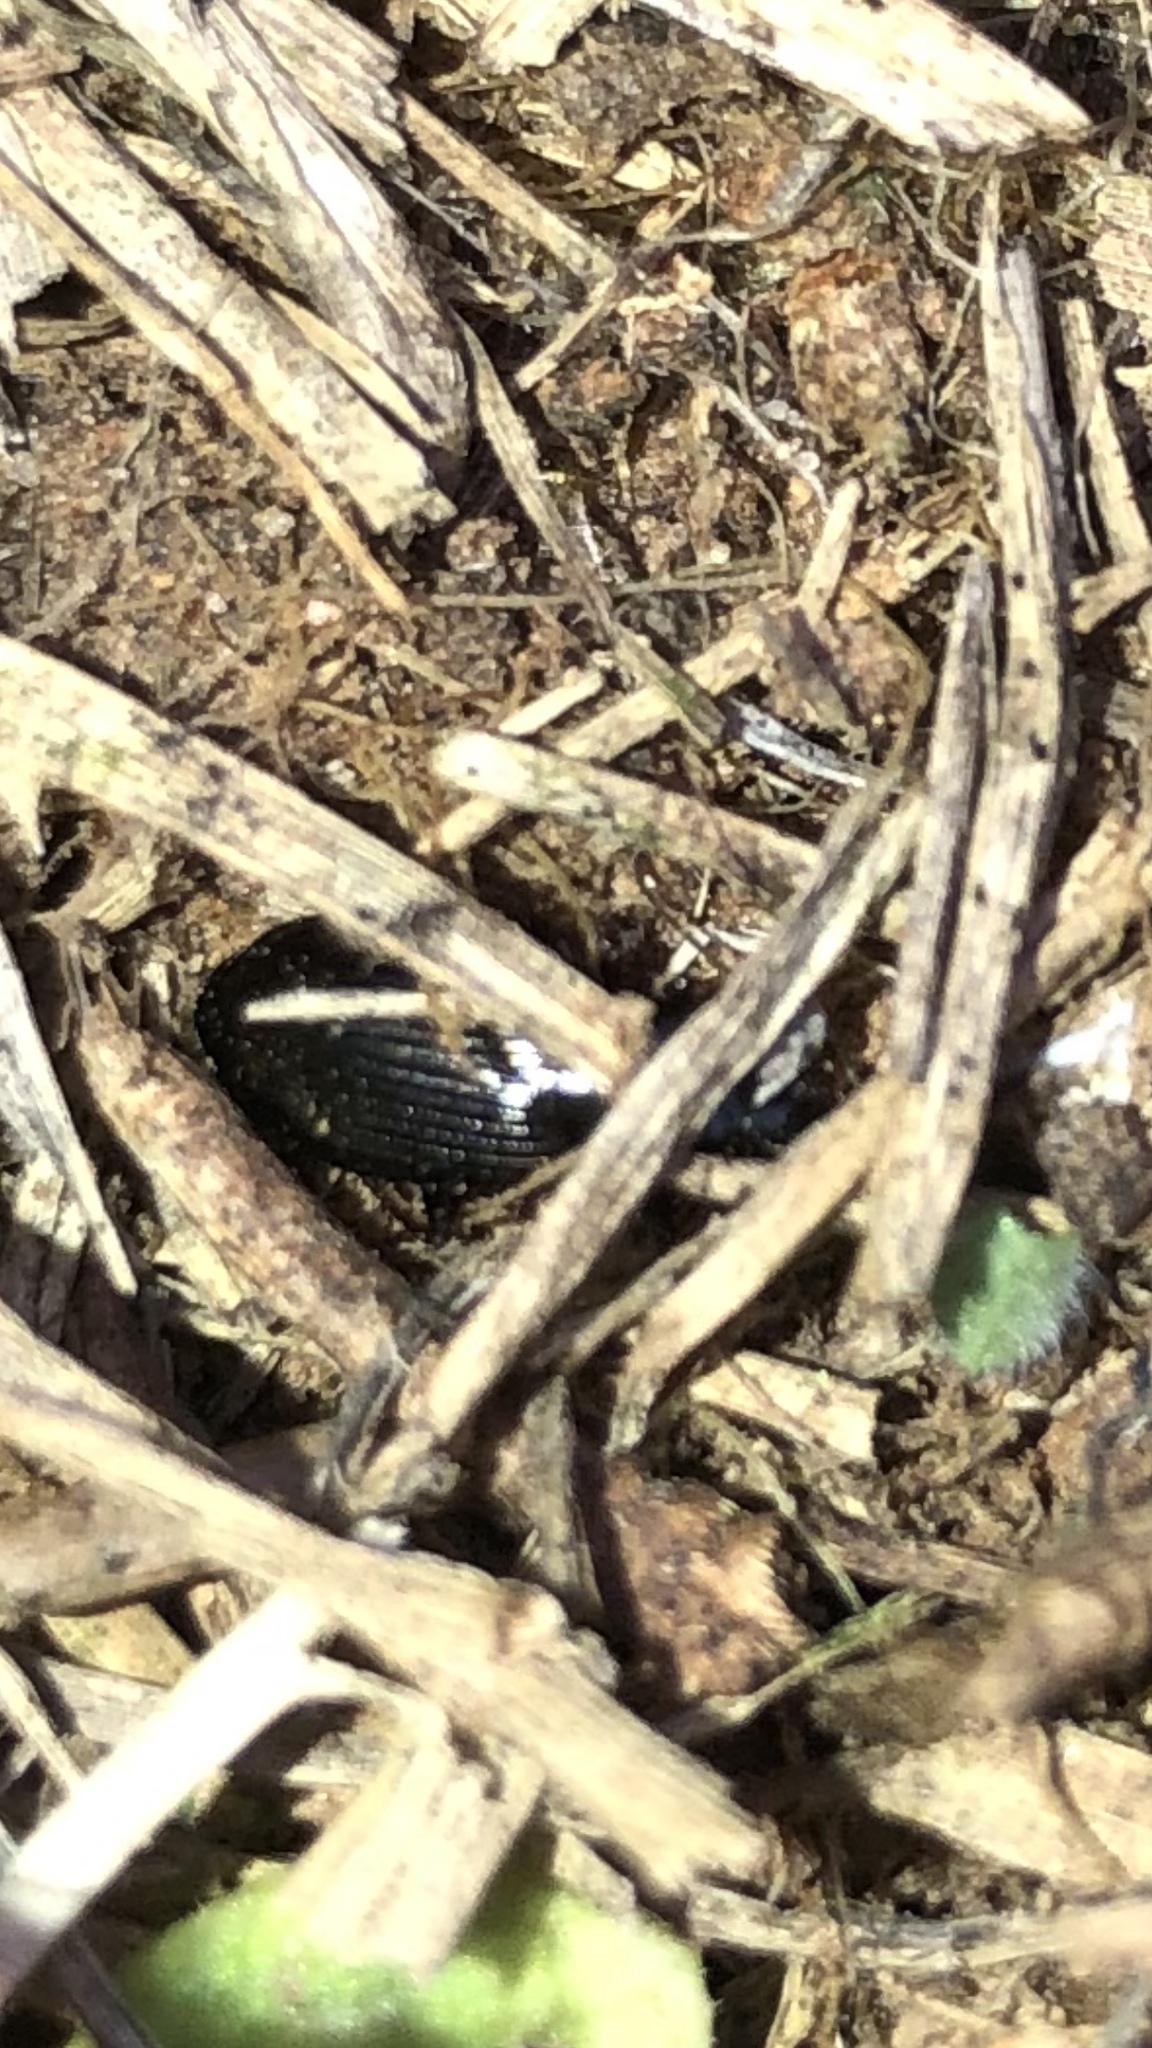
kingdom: Animalia
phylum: Arthropoda
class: Insecta
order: Coleoptera
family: Carabidae
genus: Agonum
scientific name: Agonum punctiforme
